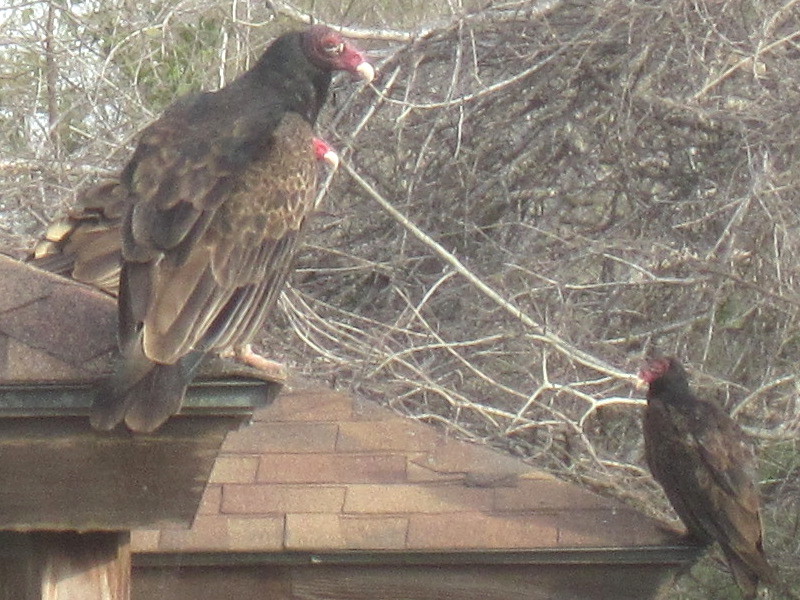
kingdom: Animalia
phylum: Chordata
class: Aves
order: Accipitriformes
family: Cathartidae
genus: Cathartes
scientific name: Cathartes aura
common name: Turkey vulture
